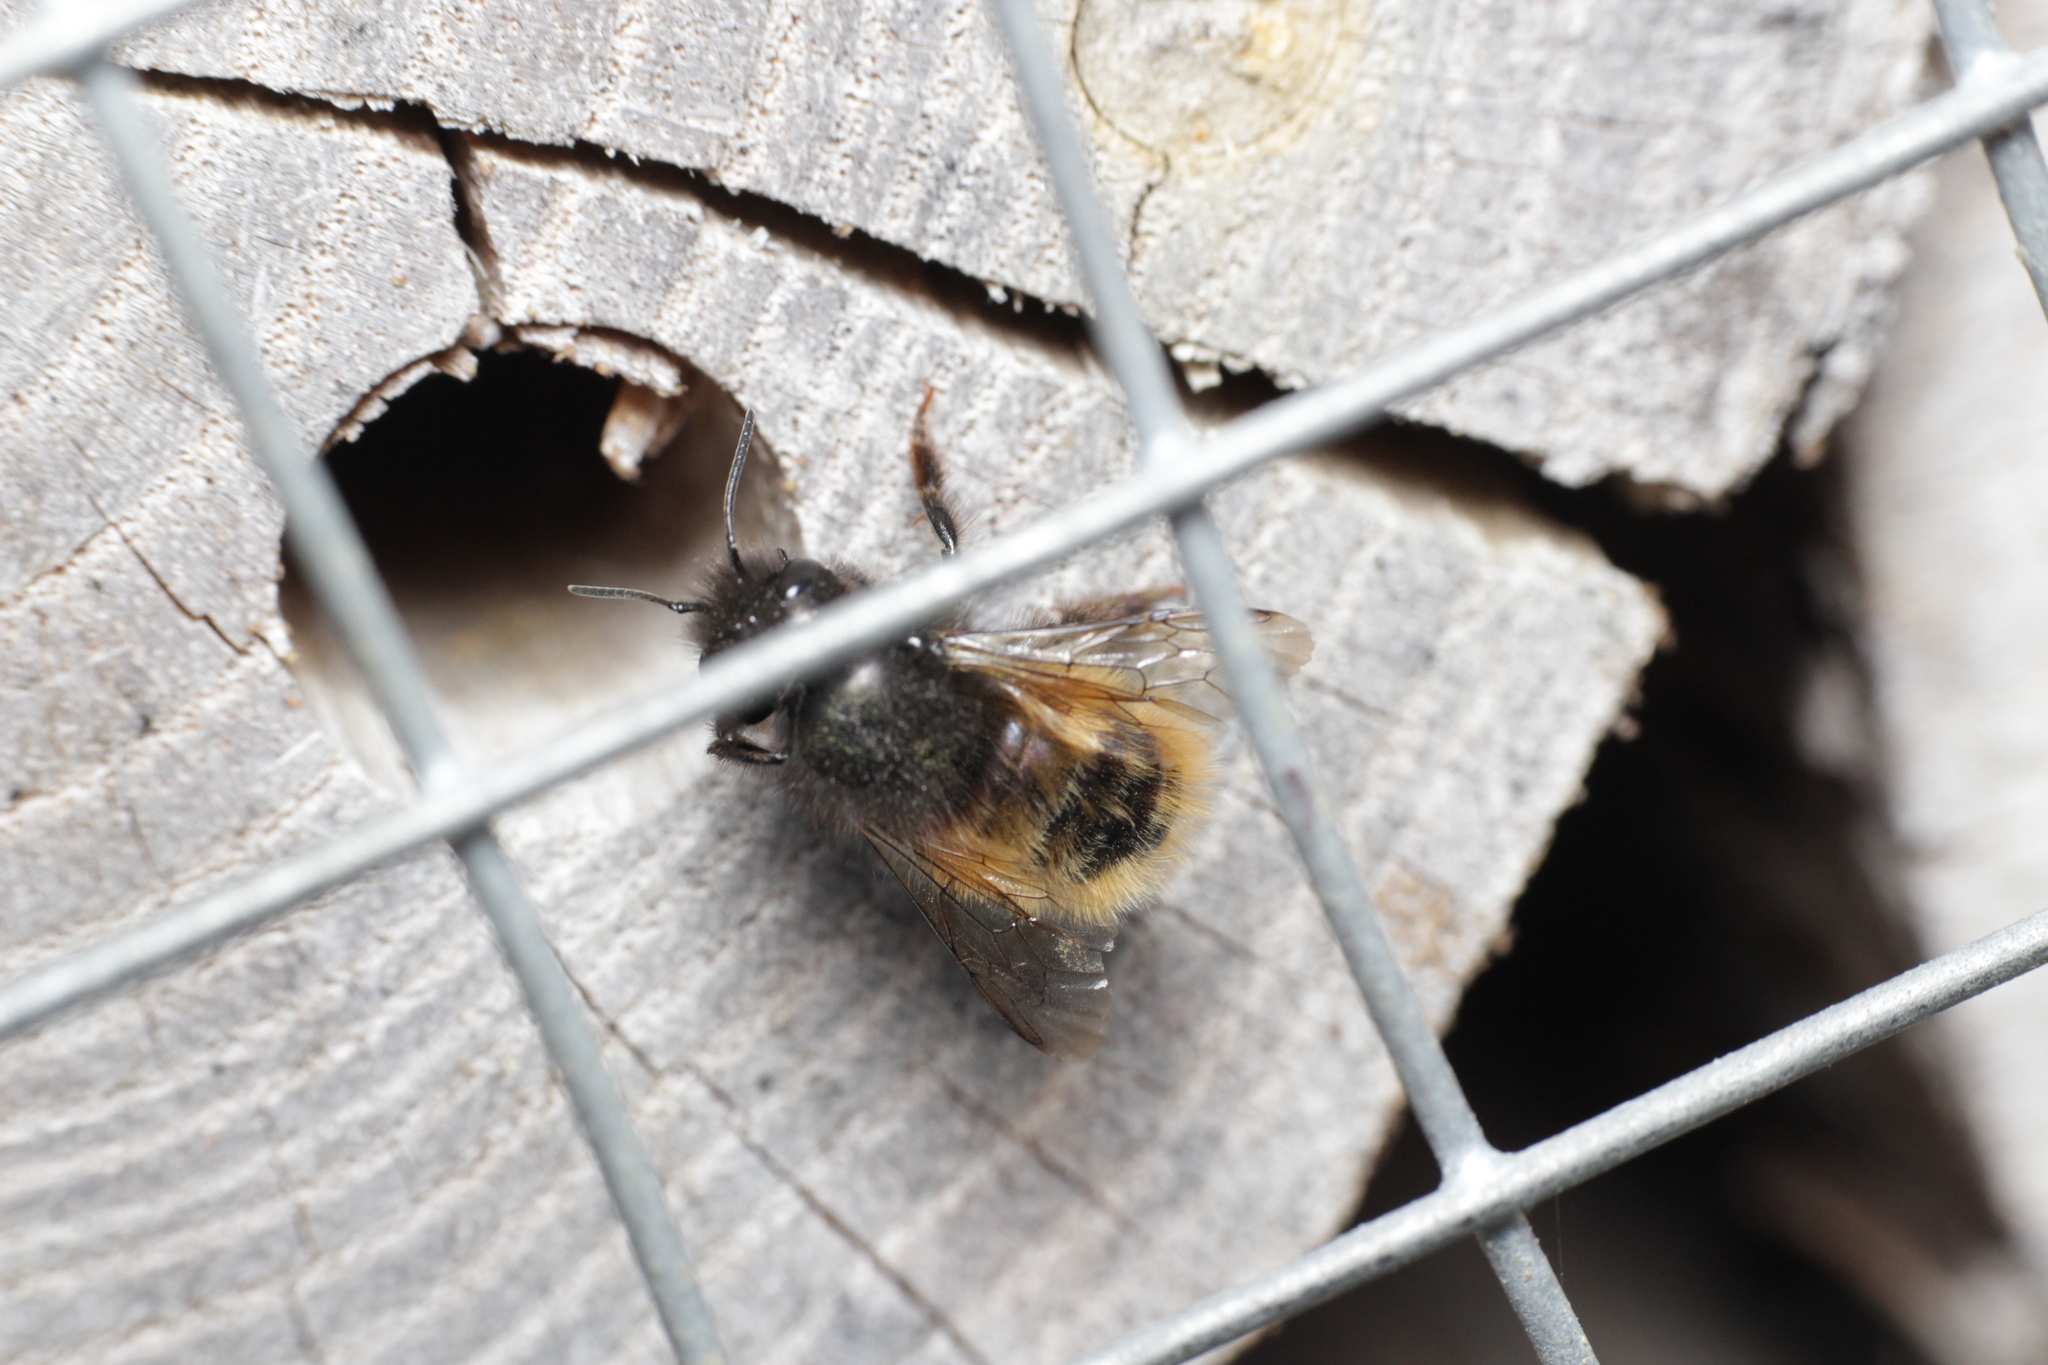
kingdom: Animalia
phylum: Arthropoda
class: Insecta
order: Hymenoptera
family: Megachilidae
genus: Osmia
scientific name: Osmia cornuta
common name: Mason bee
